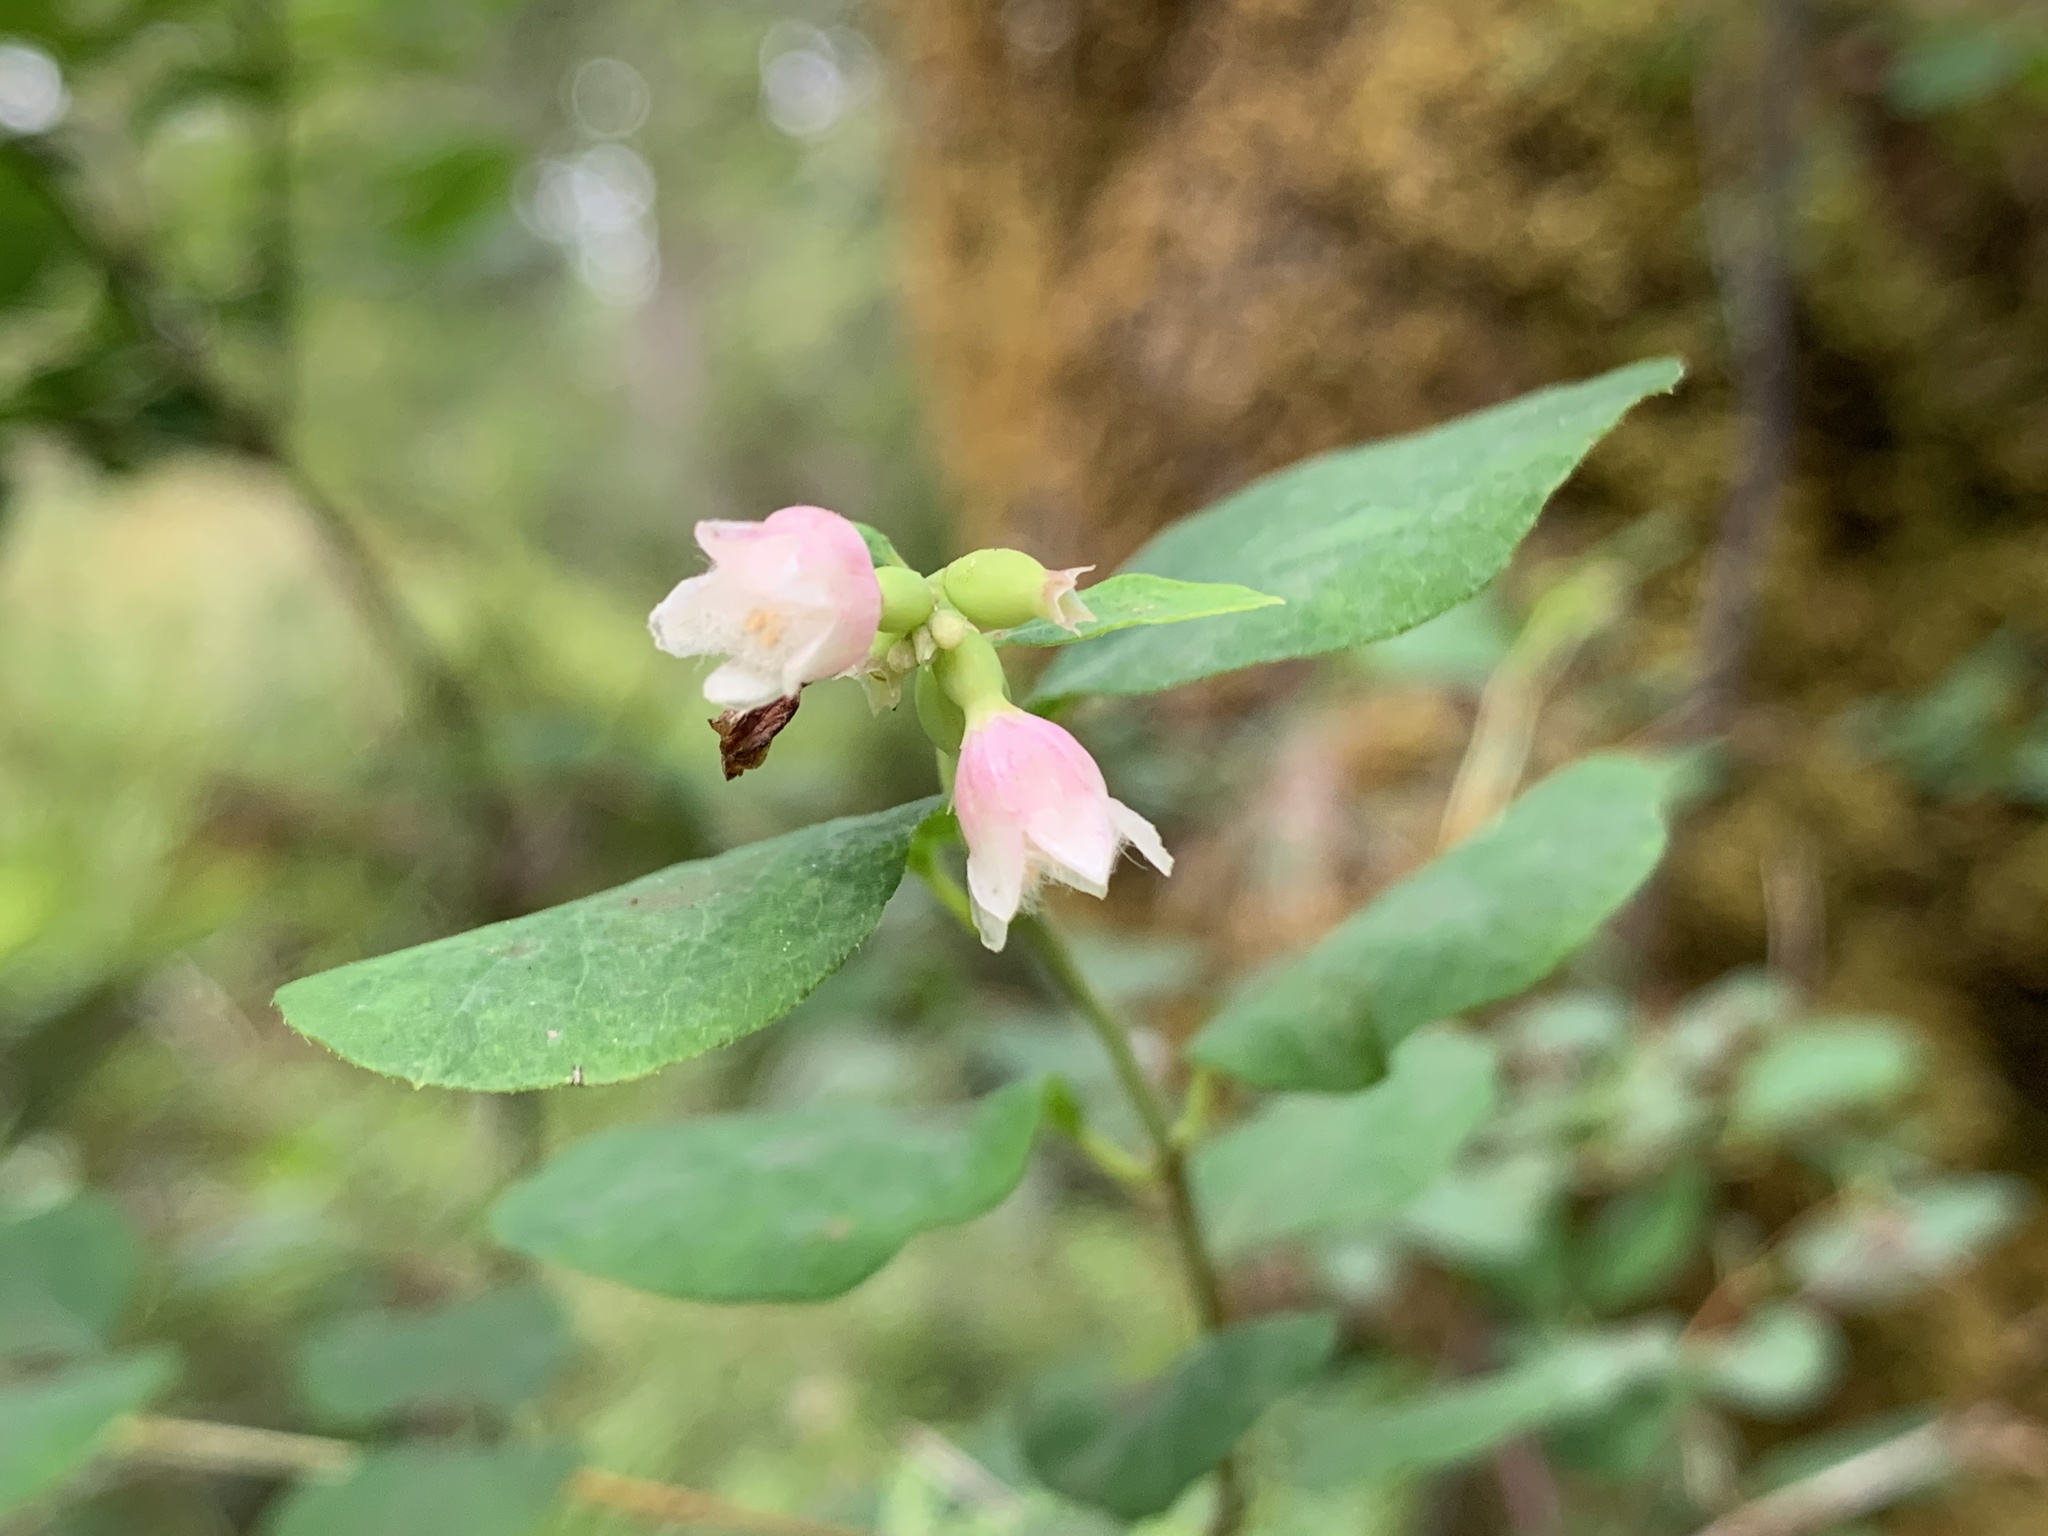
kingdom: Plantae
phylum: Tracheophyta
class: Magnoliopsida
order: Dipsacales
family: Caprifoliaceae
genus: Symphoricarpos
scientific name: Symphoricarpos albus
